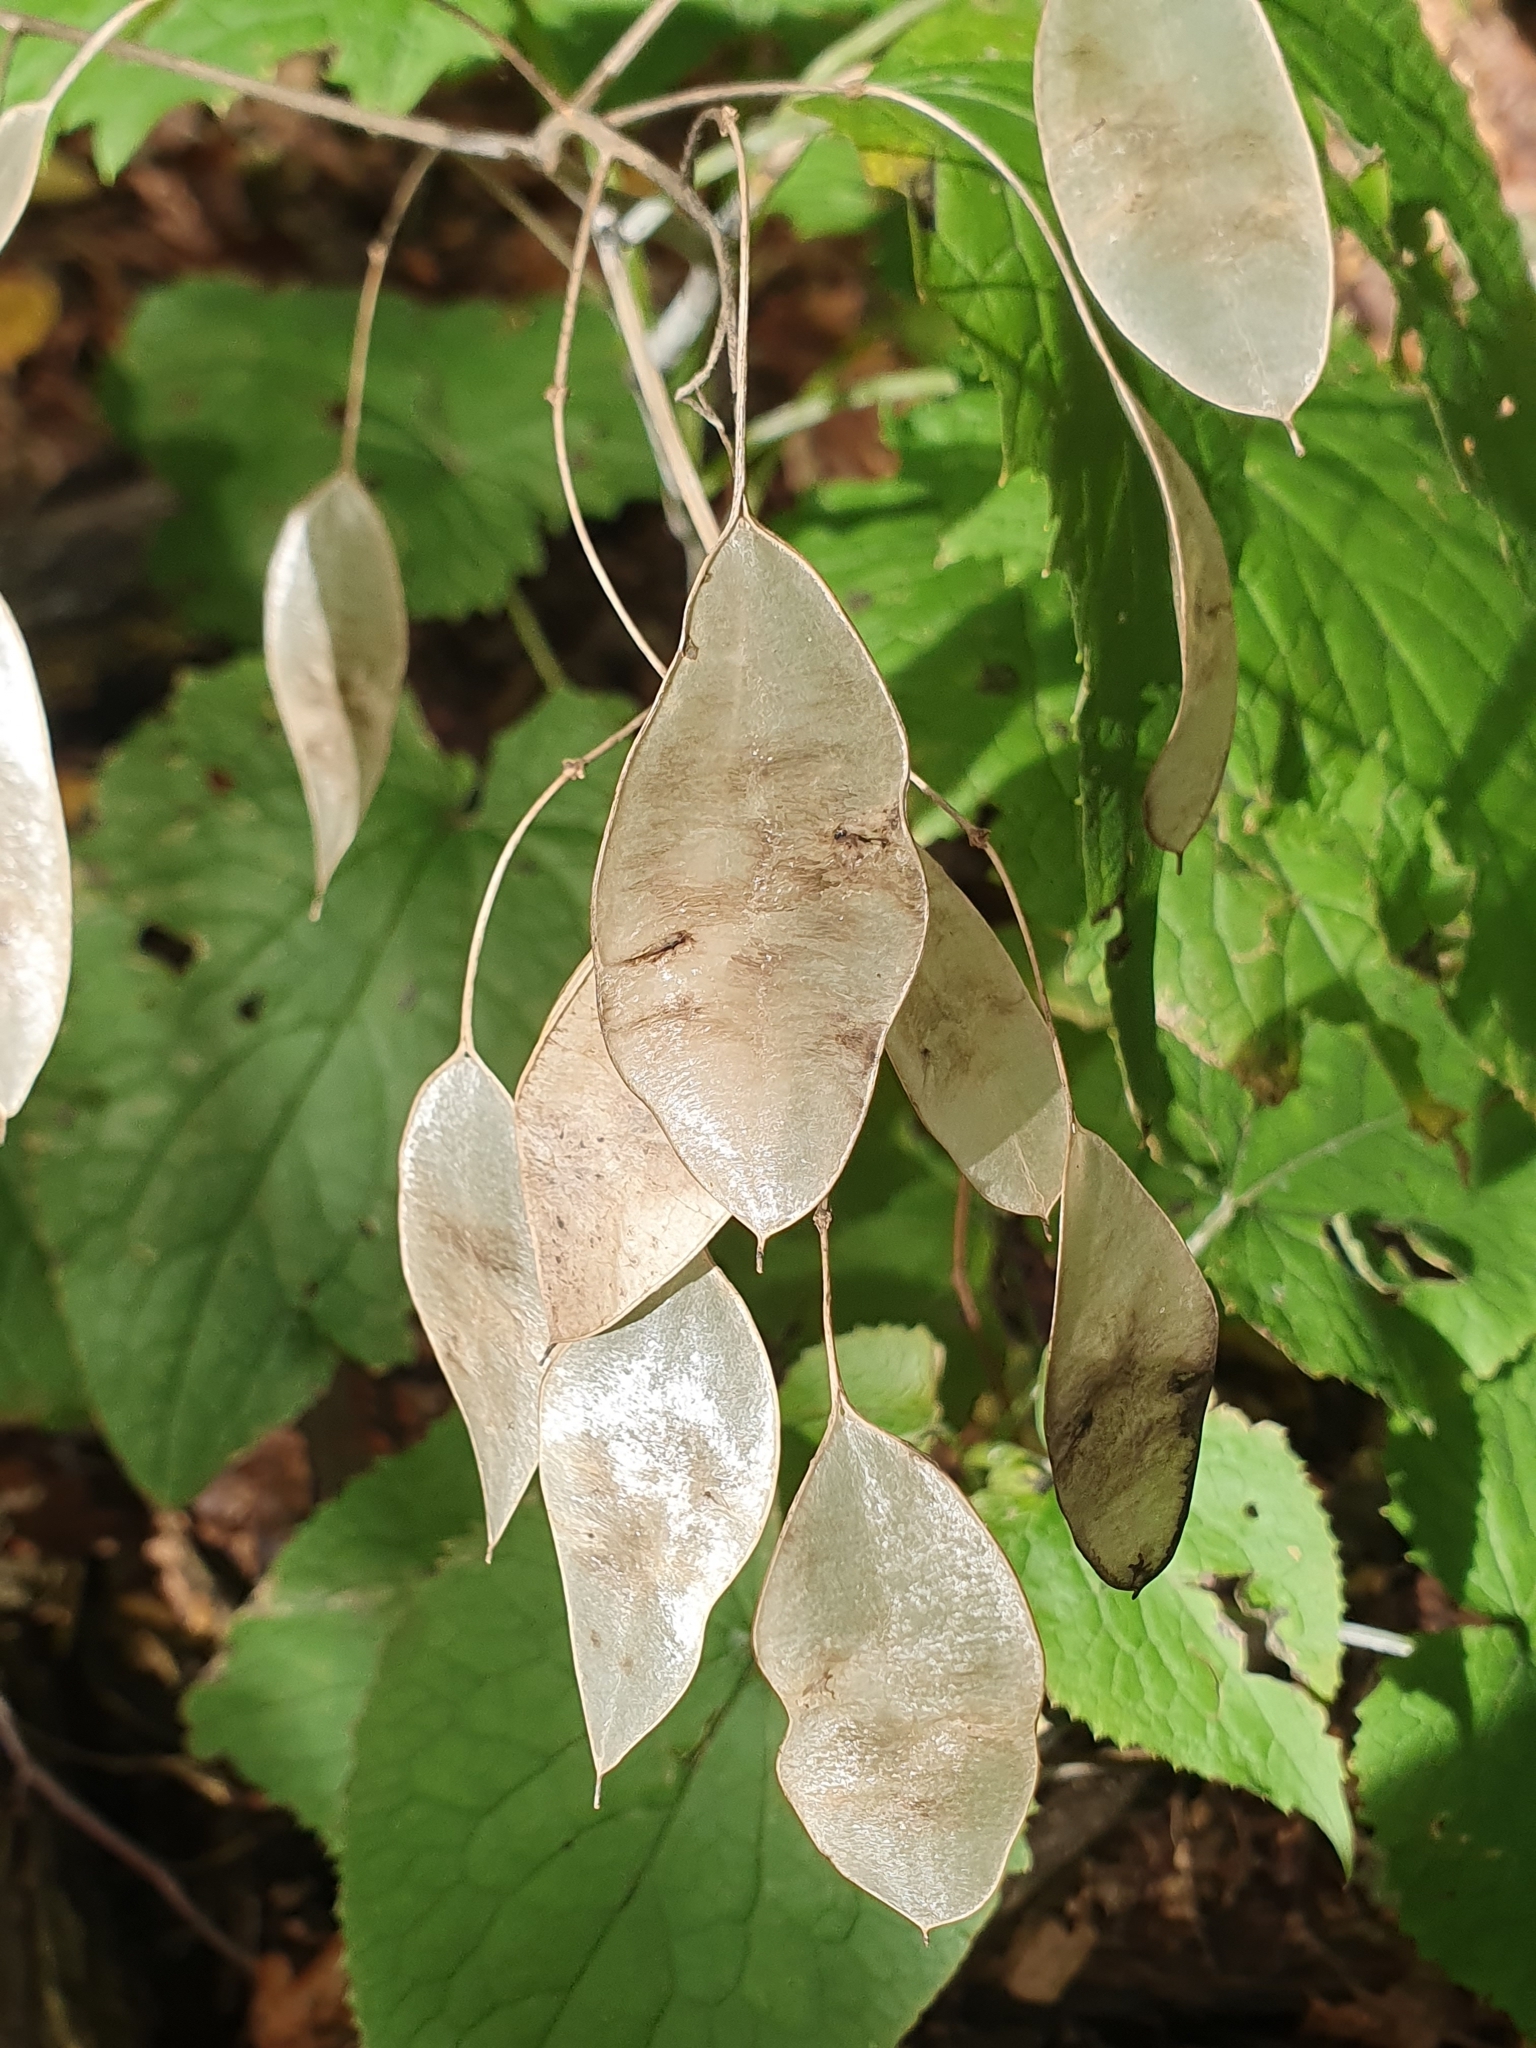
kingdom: Plantae
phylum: Tracheophyta
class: Magnoliopsida
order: Brassicales
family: Brassicaceae
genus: Lunaria
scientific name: Lunaria rediviva
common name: Perennial honesty
